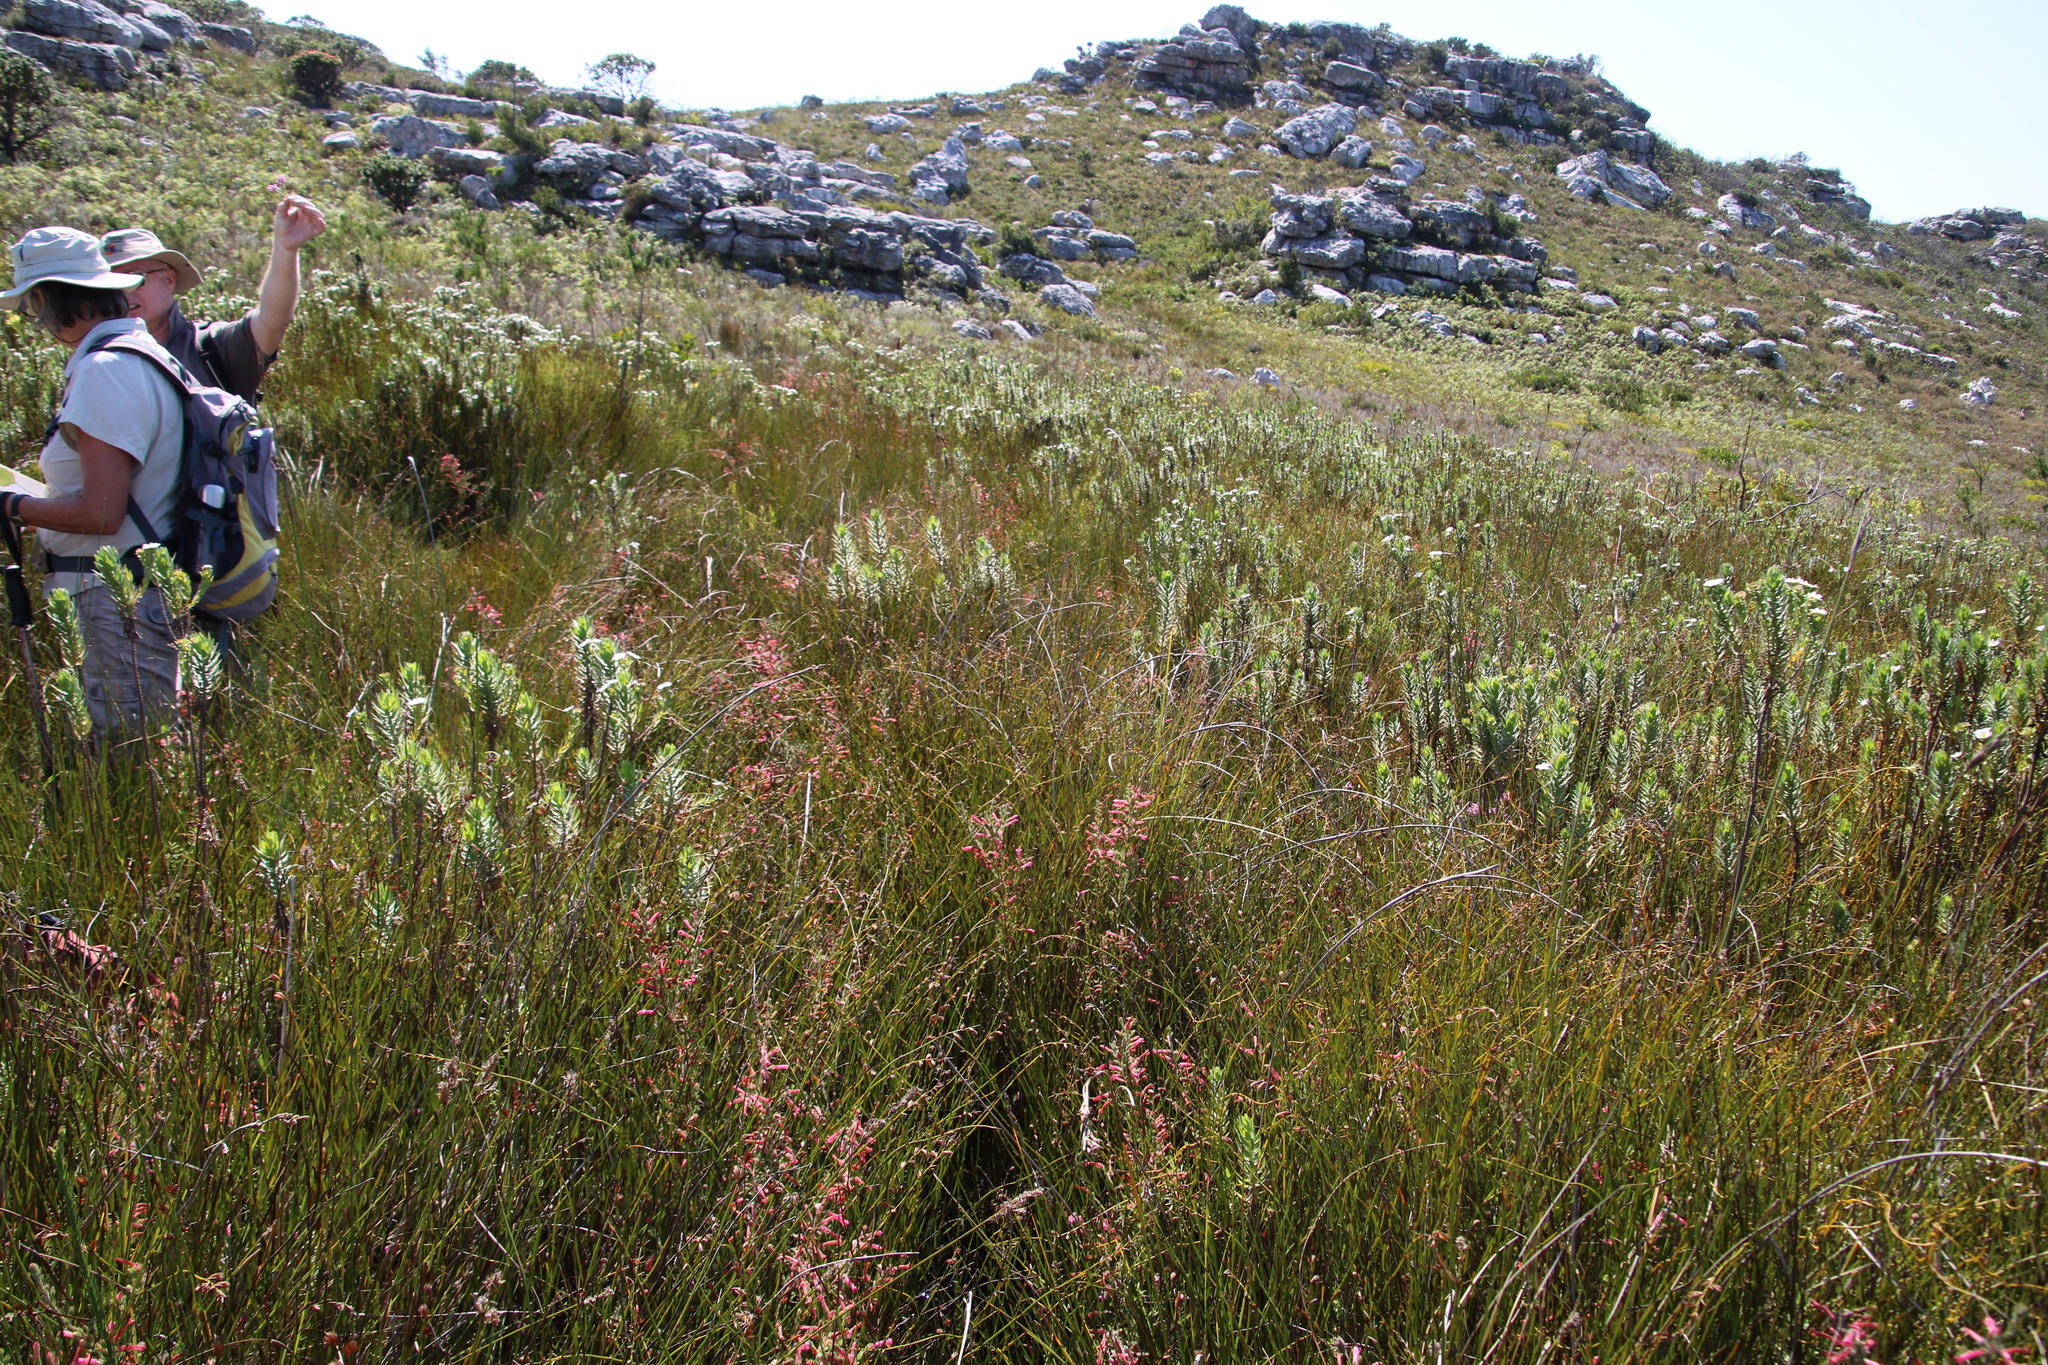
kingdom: Plantae
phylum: Tracheophyta
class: Magnoliopsida
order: Ericales
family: Ericaceae
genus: Erica
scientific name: Erica curviflora
